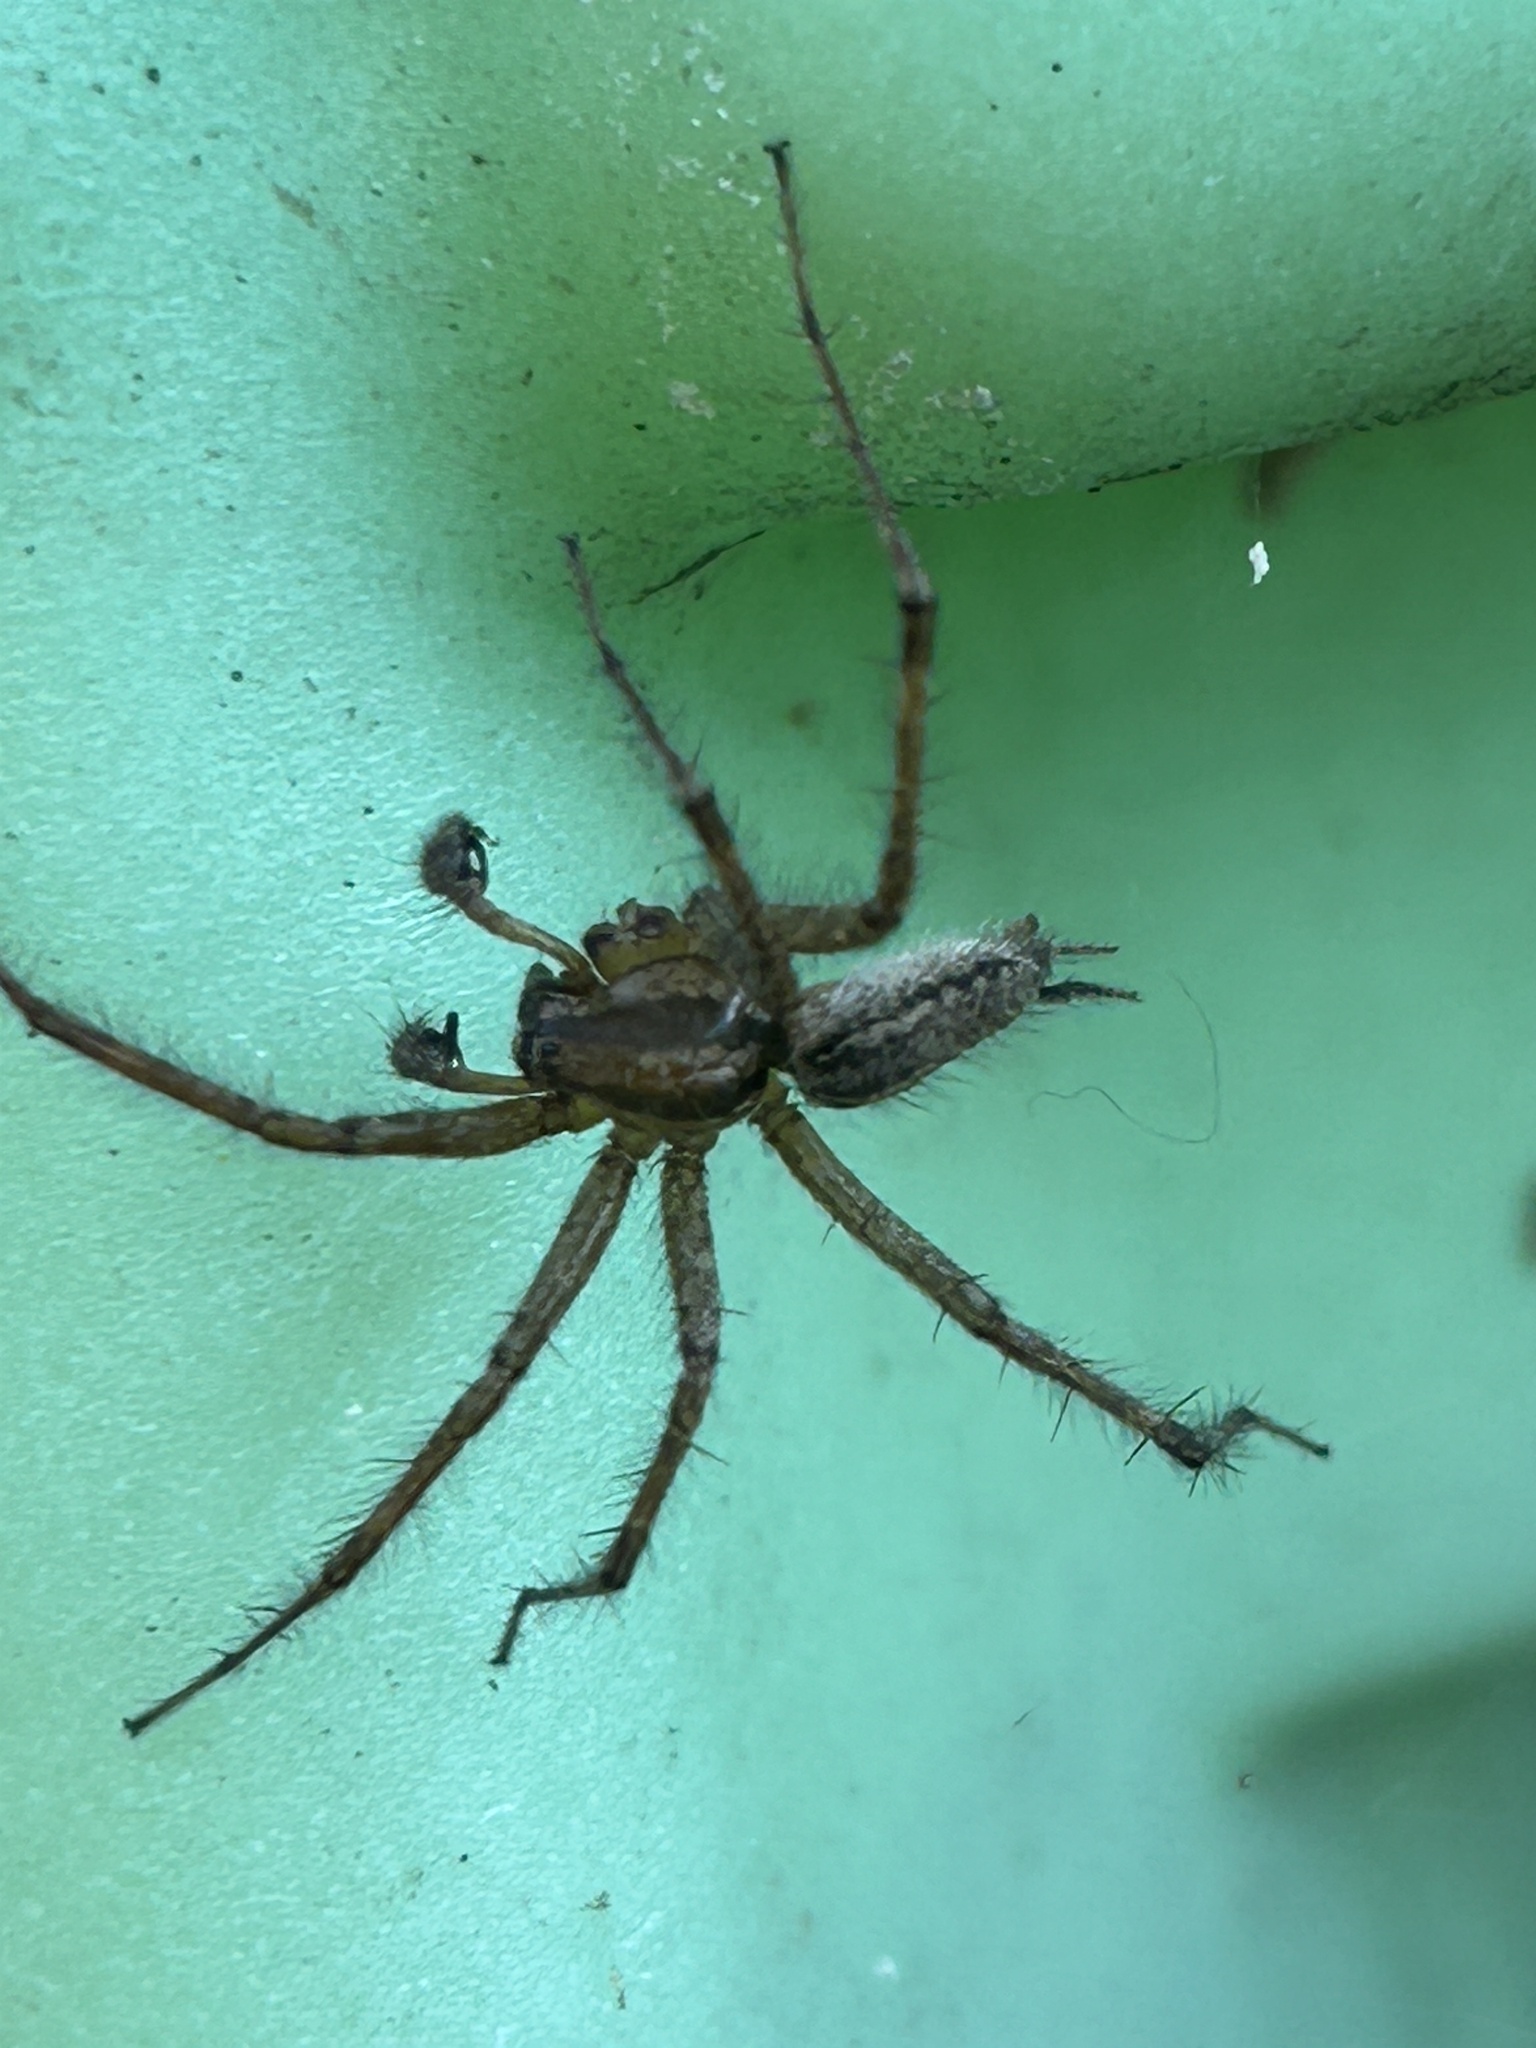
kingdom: Animalia
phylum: Arthropoda
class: Arachnida
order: Araneae
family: Agelenidae
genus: Agelenopsis
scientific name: Agelenopsis potteri
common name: Potter's grass spider
